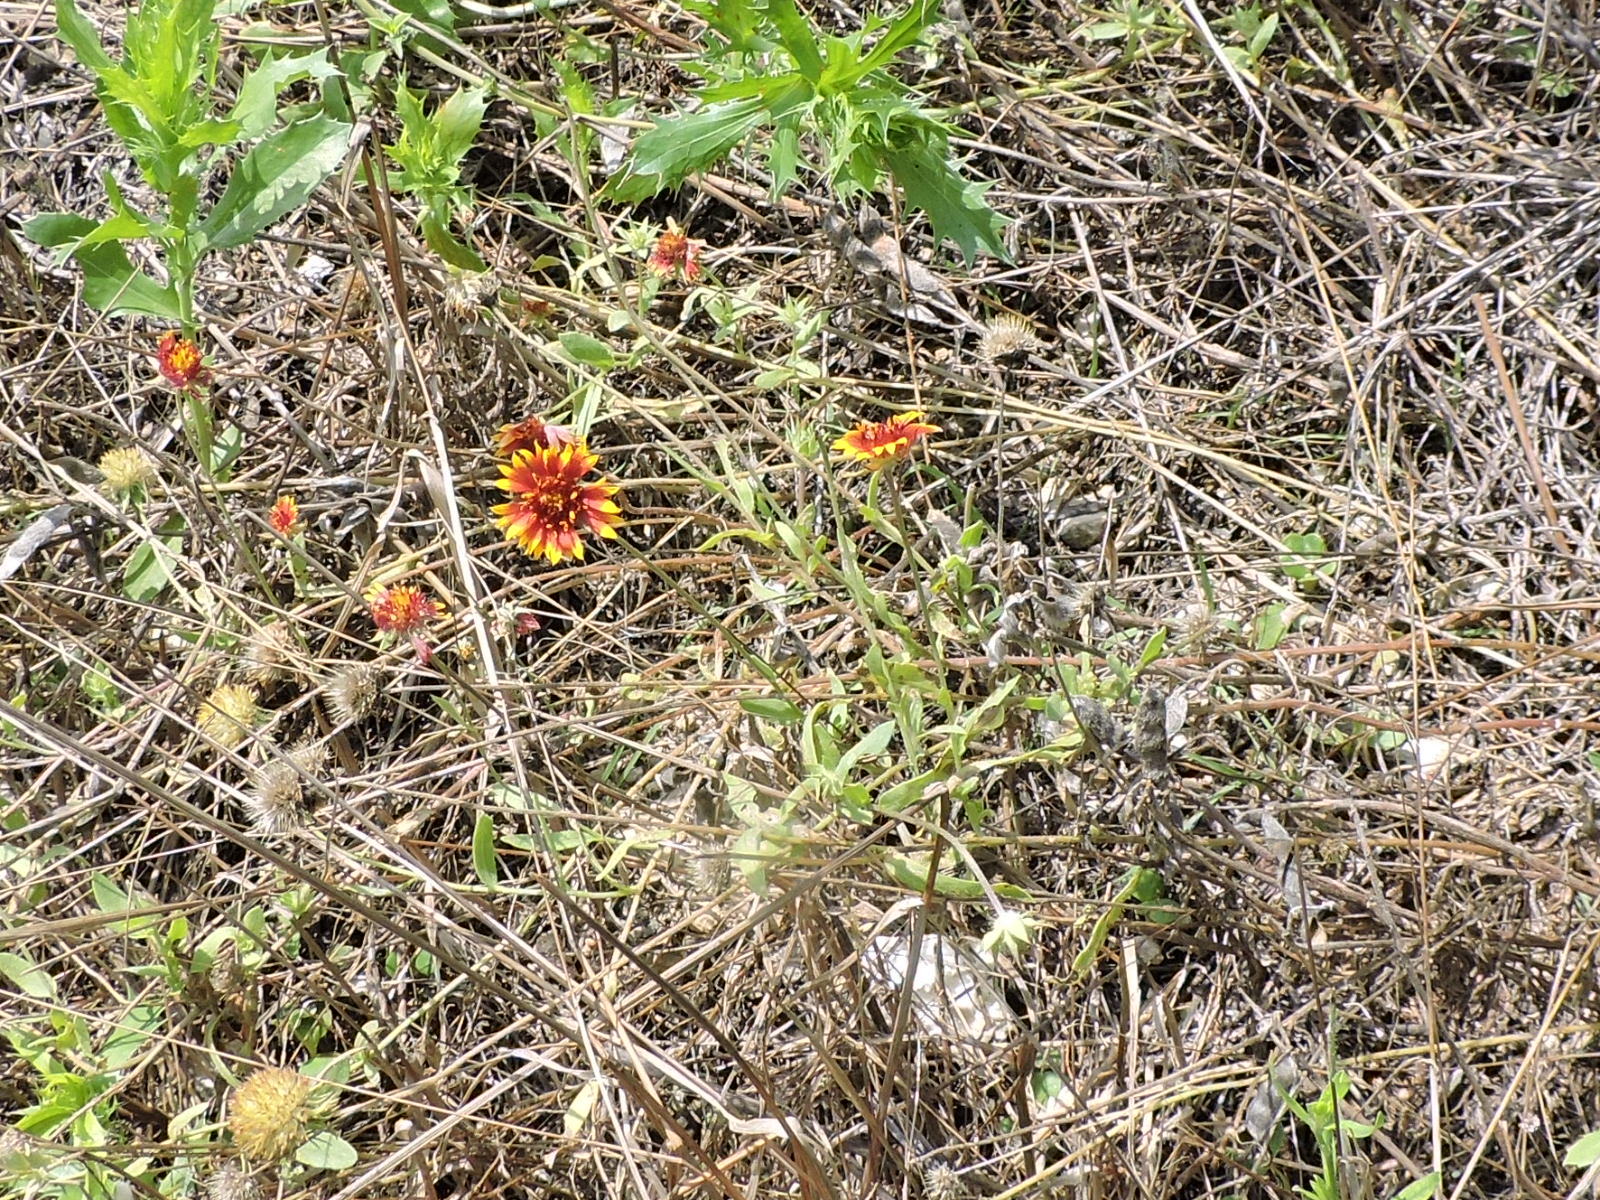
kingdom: Plantae
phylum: Tracheophyta
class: Magnoliopsida
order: Asterales
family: Asteraceae
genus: Gaillardia
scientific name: Gaillardia pulchella
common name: Firewheel
